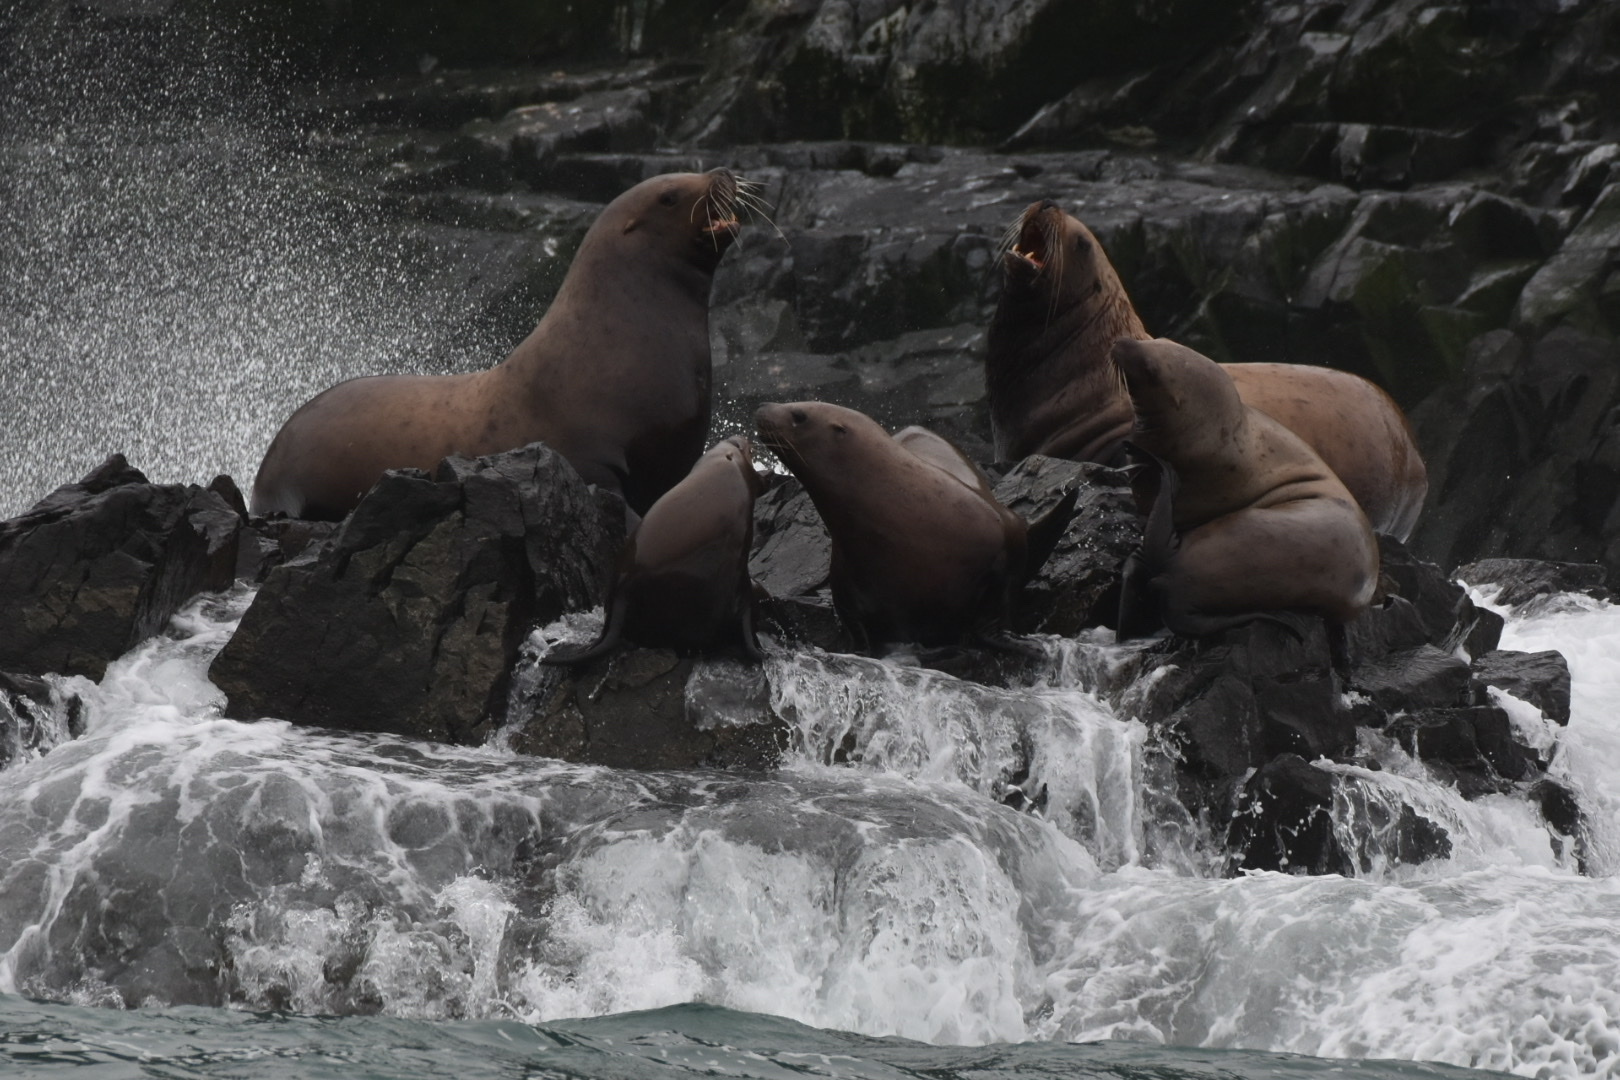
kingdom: Animalia
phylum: Chordata
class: Mammalia
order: Carnivora
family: Otariidae
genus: Eumetopias
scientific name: Eumetopias jubatus
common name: Steller sea lion
